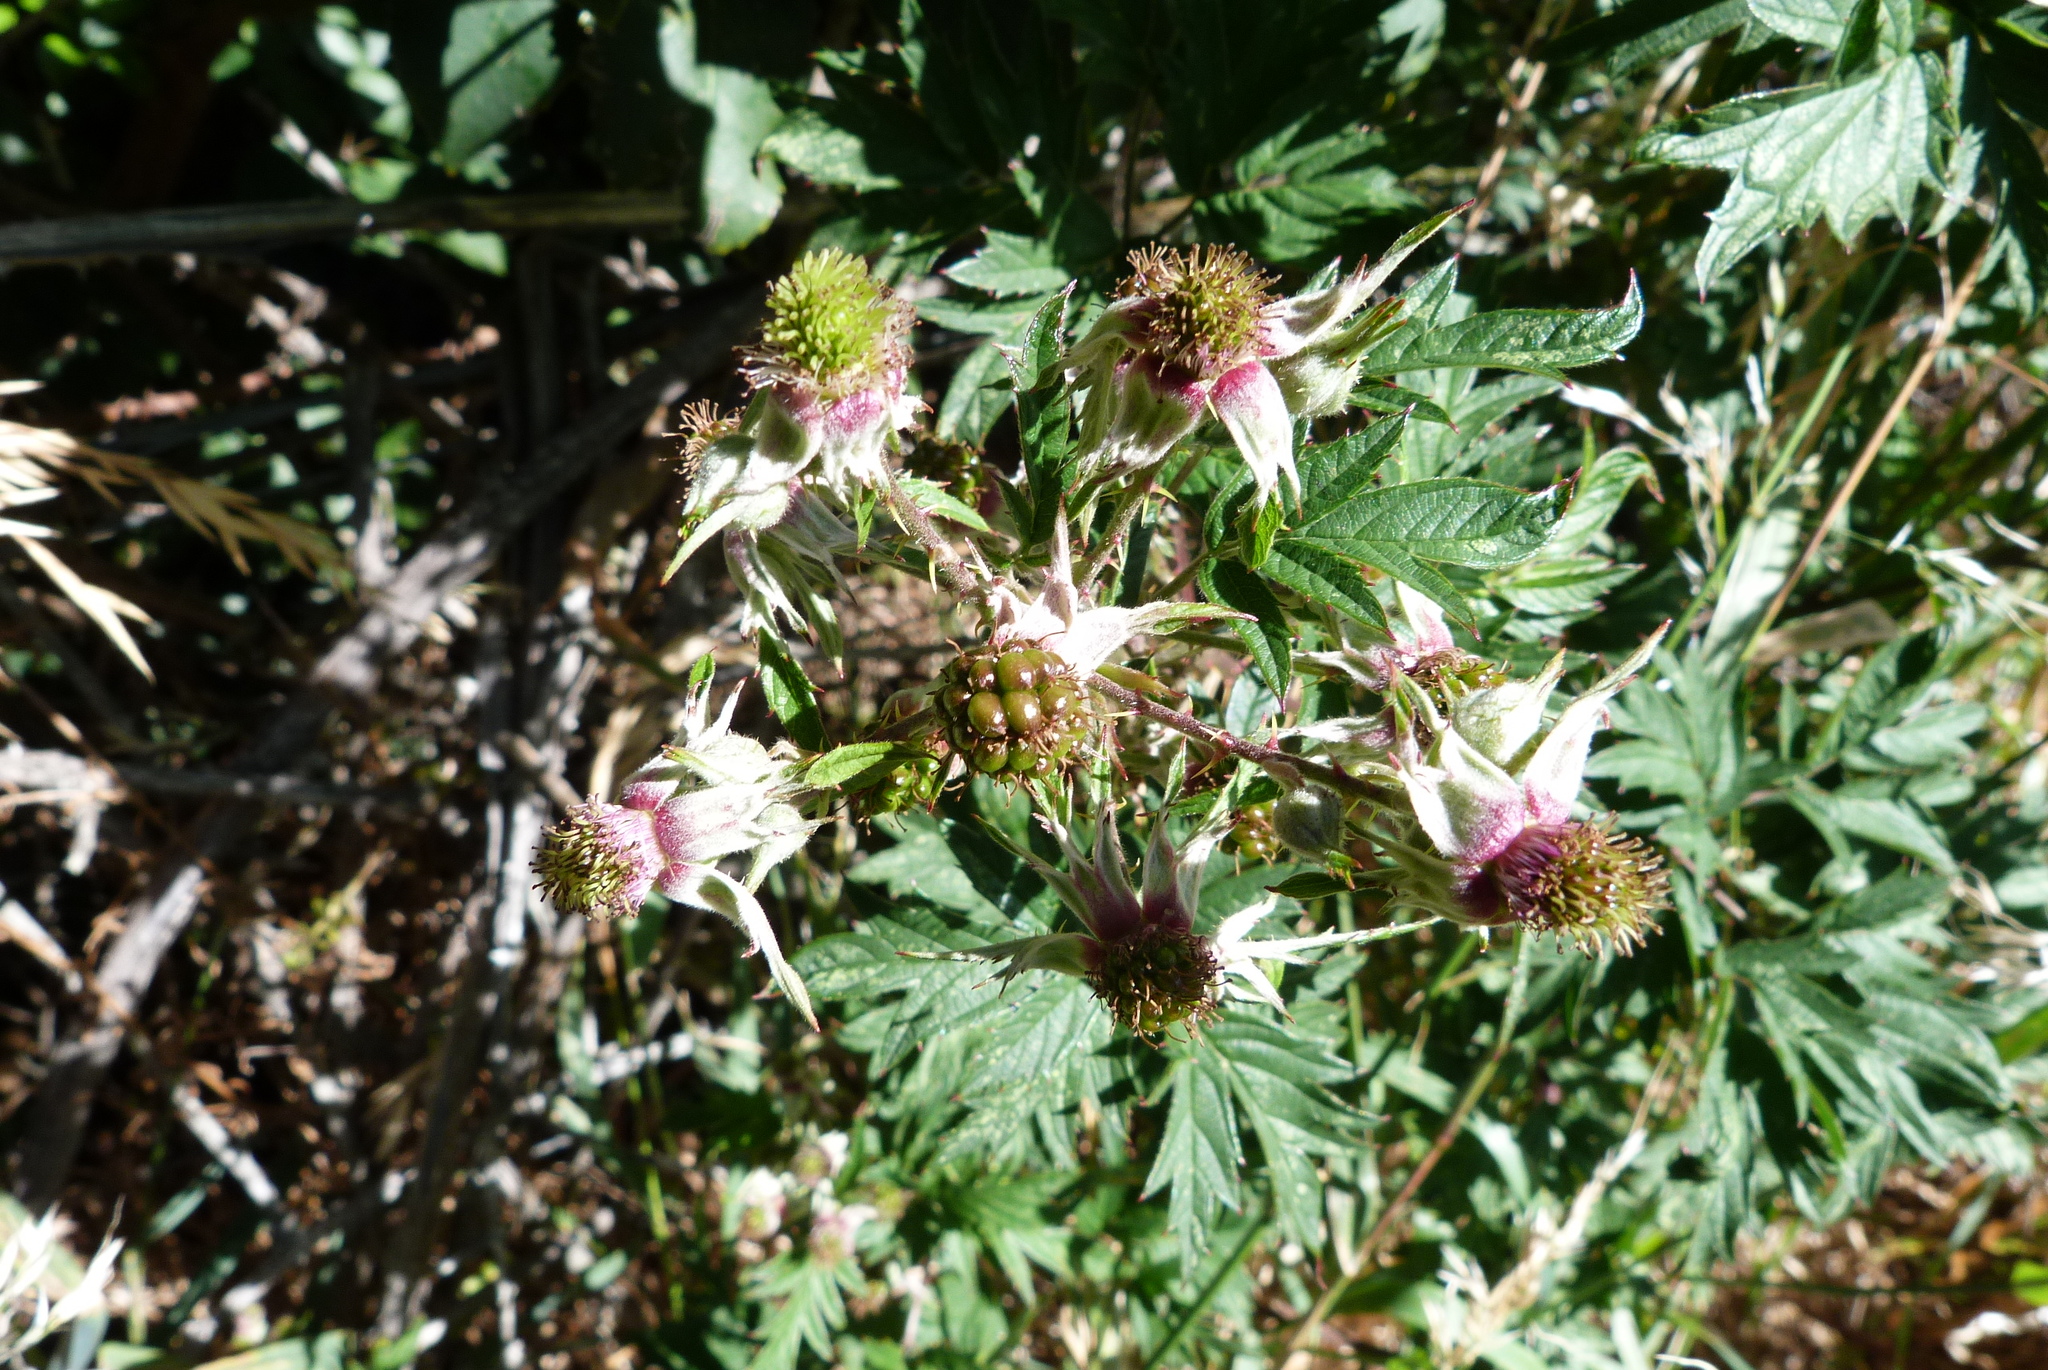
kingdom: Plantae
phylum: Tracheophyta
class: Magnoliopsida
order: Rosales
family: Rosaceae
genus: Rubus
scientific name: Rubus laciniatus
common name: Evergreen blackberry
